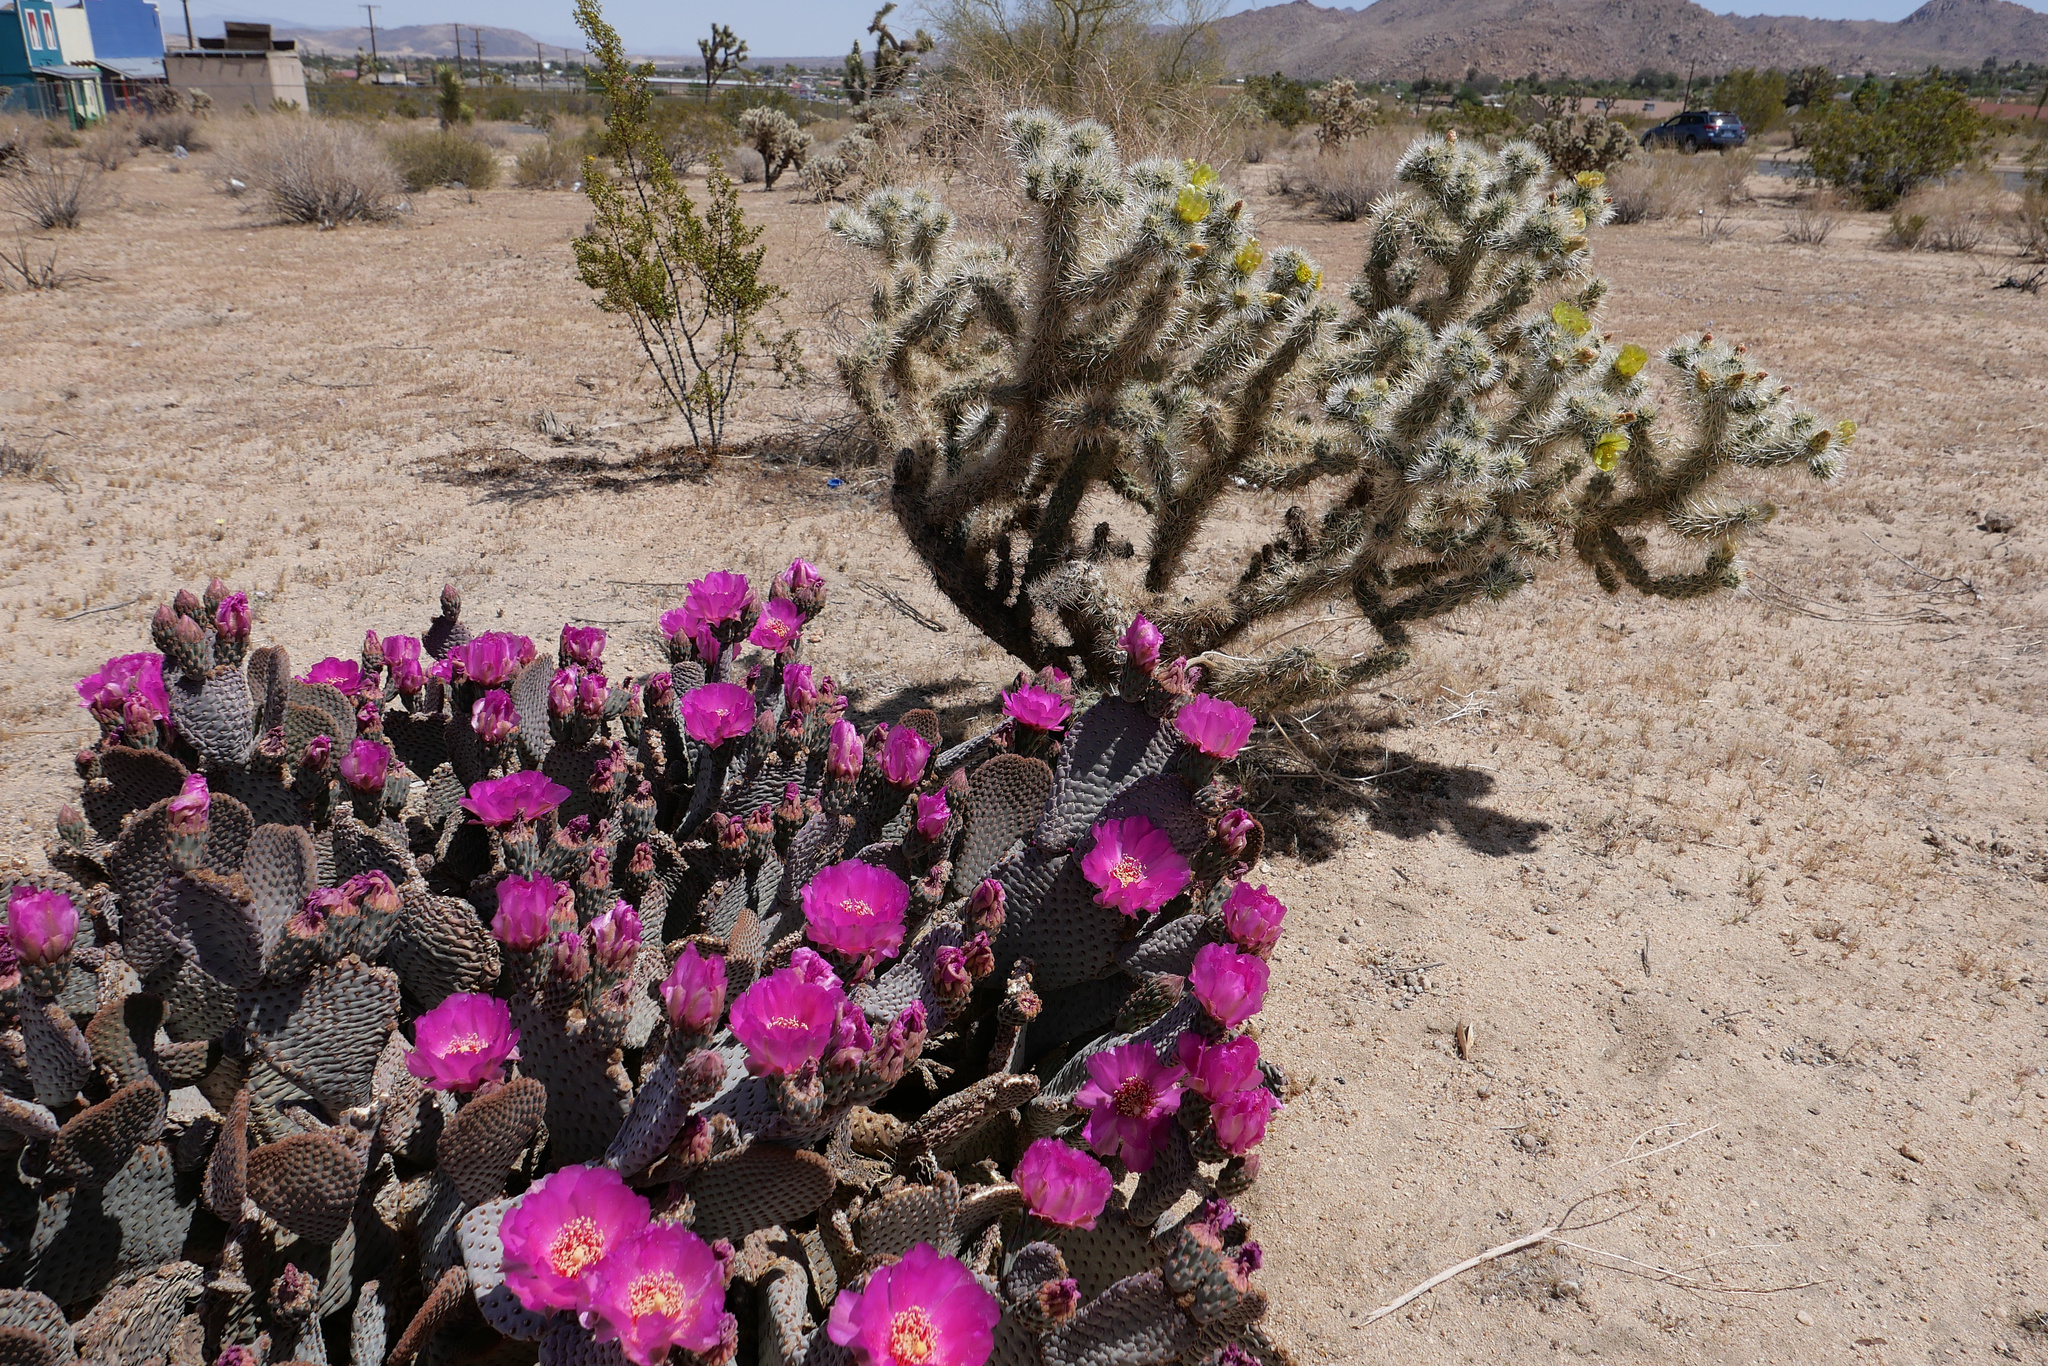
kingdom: Plantae
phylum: Tracheophyta
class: Magnoliopsida
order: Caryophyllales
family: Cactaceae
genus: Cylindropuntia
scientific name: Cylindropuntia echinocarpa
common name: Ground cholla
